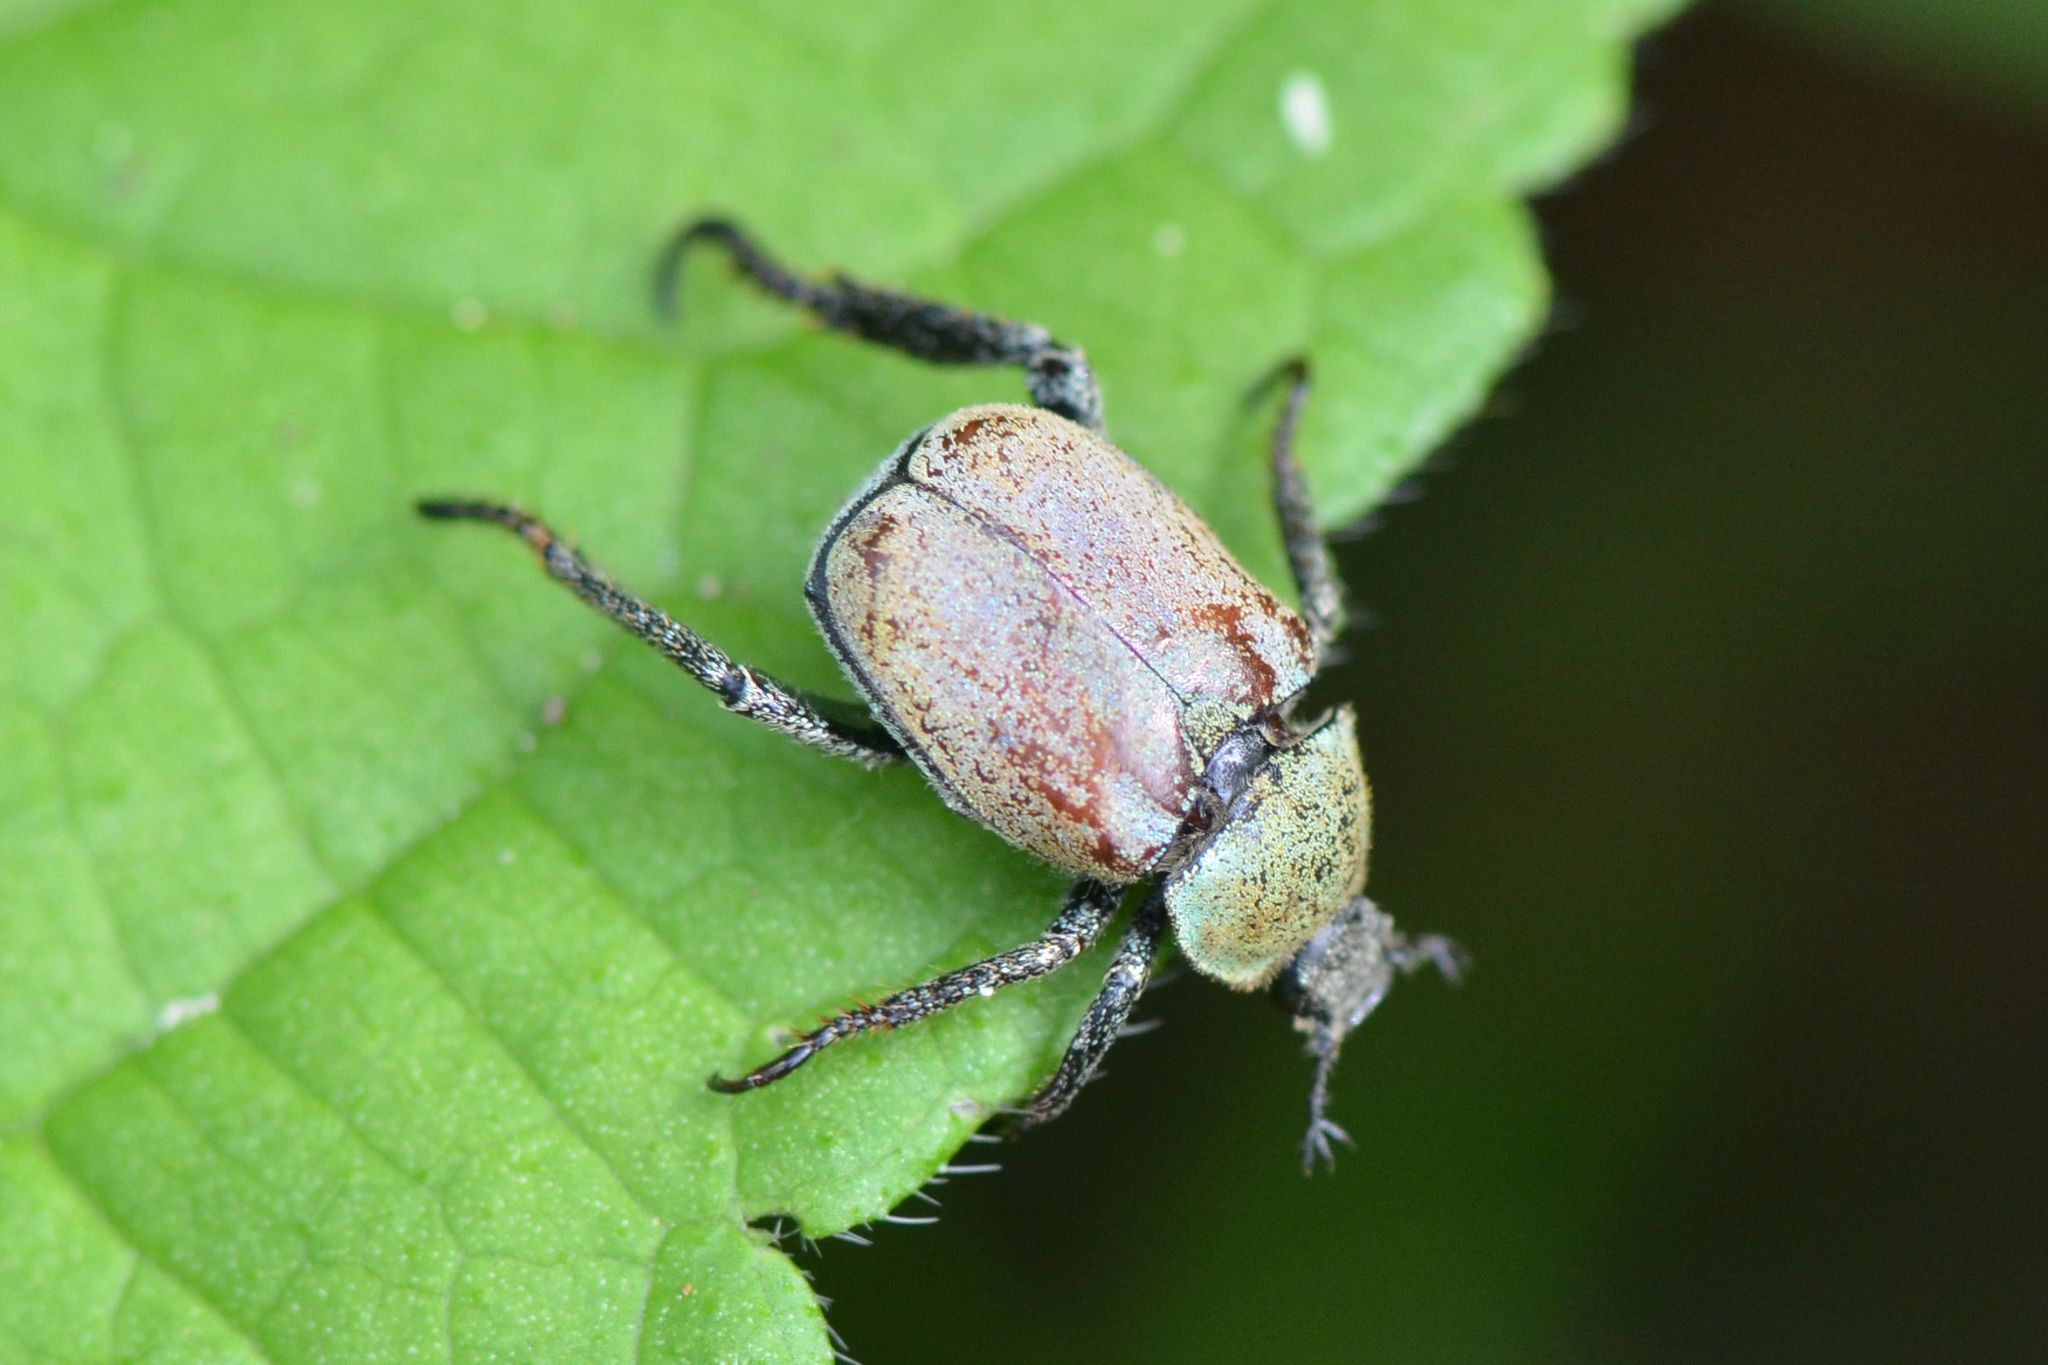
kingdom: Animalia
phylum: Arthropoda
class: Insecta
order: Coleoptera
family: Scarabaeidae
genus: Hoplia
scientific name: Hoplia argentea
